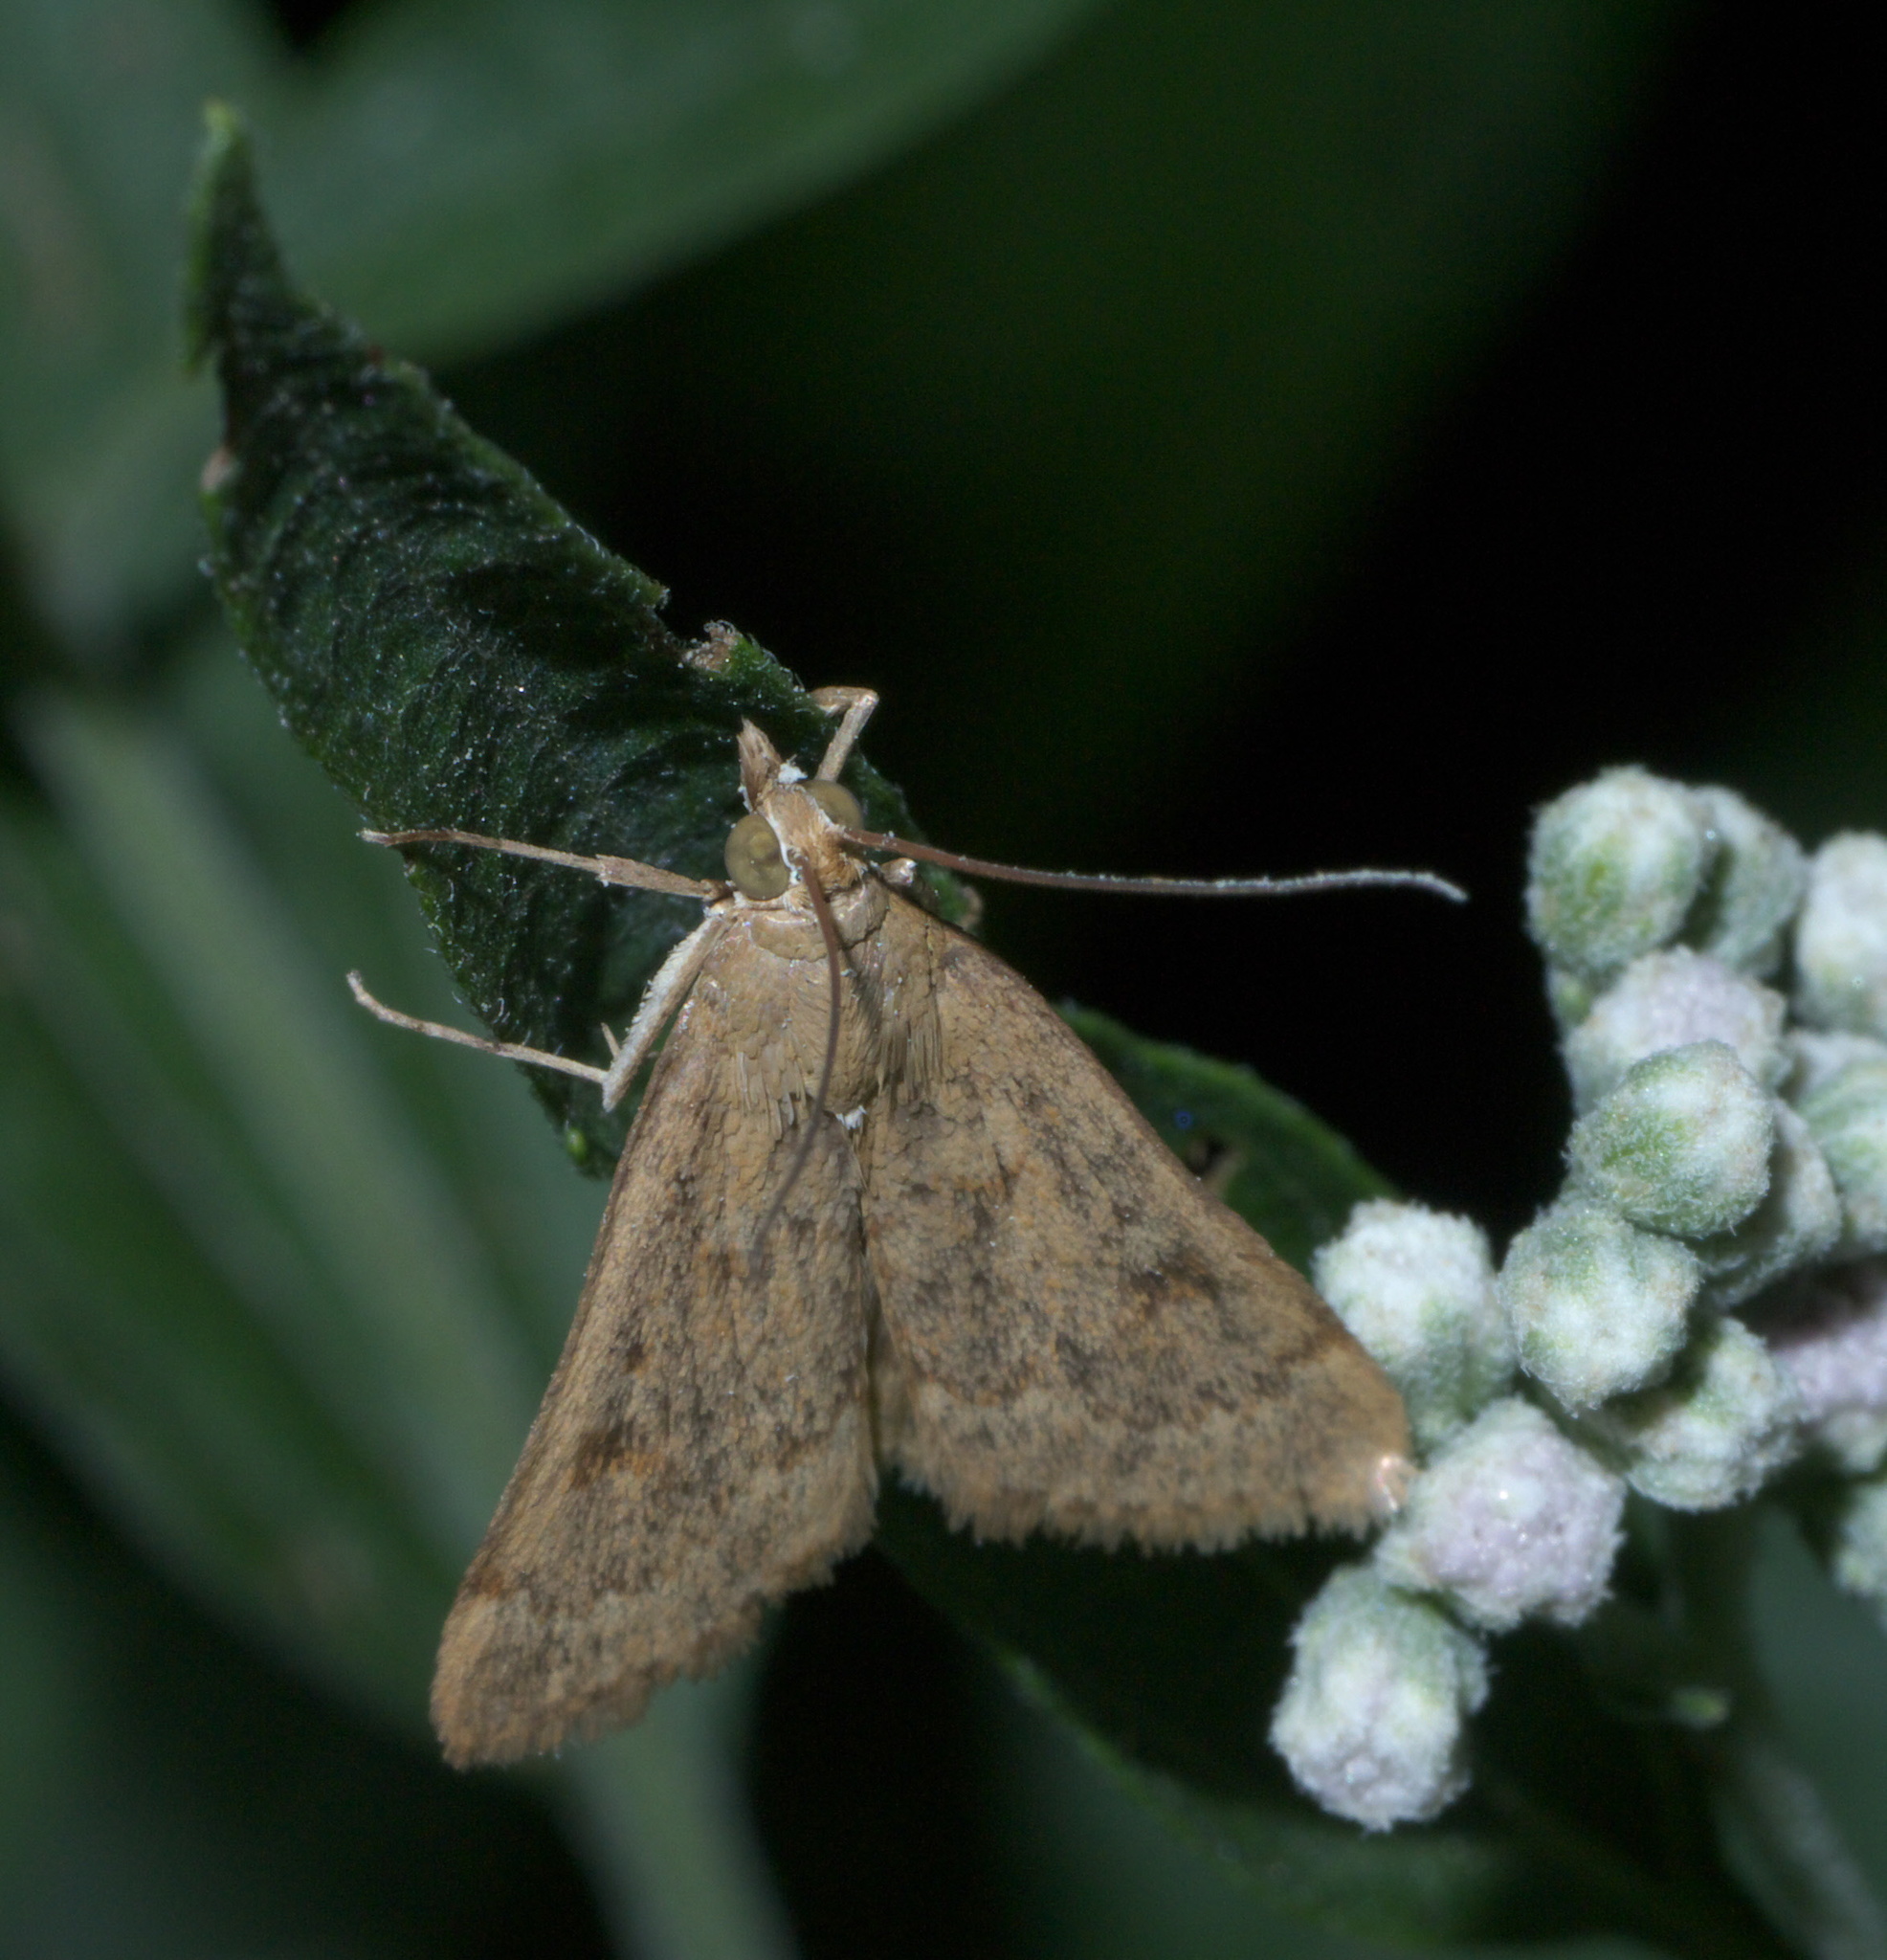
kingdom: Animalia
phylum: Arthropoda
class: Insecta
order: Lepidoptera
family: Crambidae
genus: Achyra
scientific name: Achyra rantalis
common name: Garden webworm
